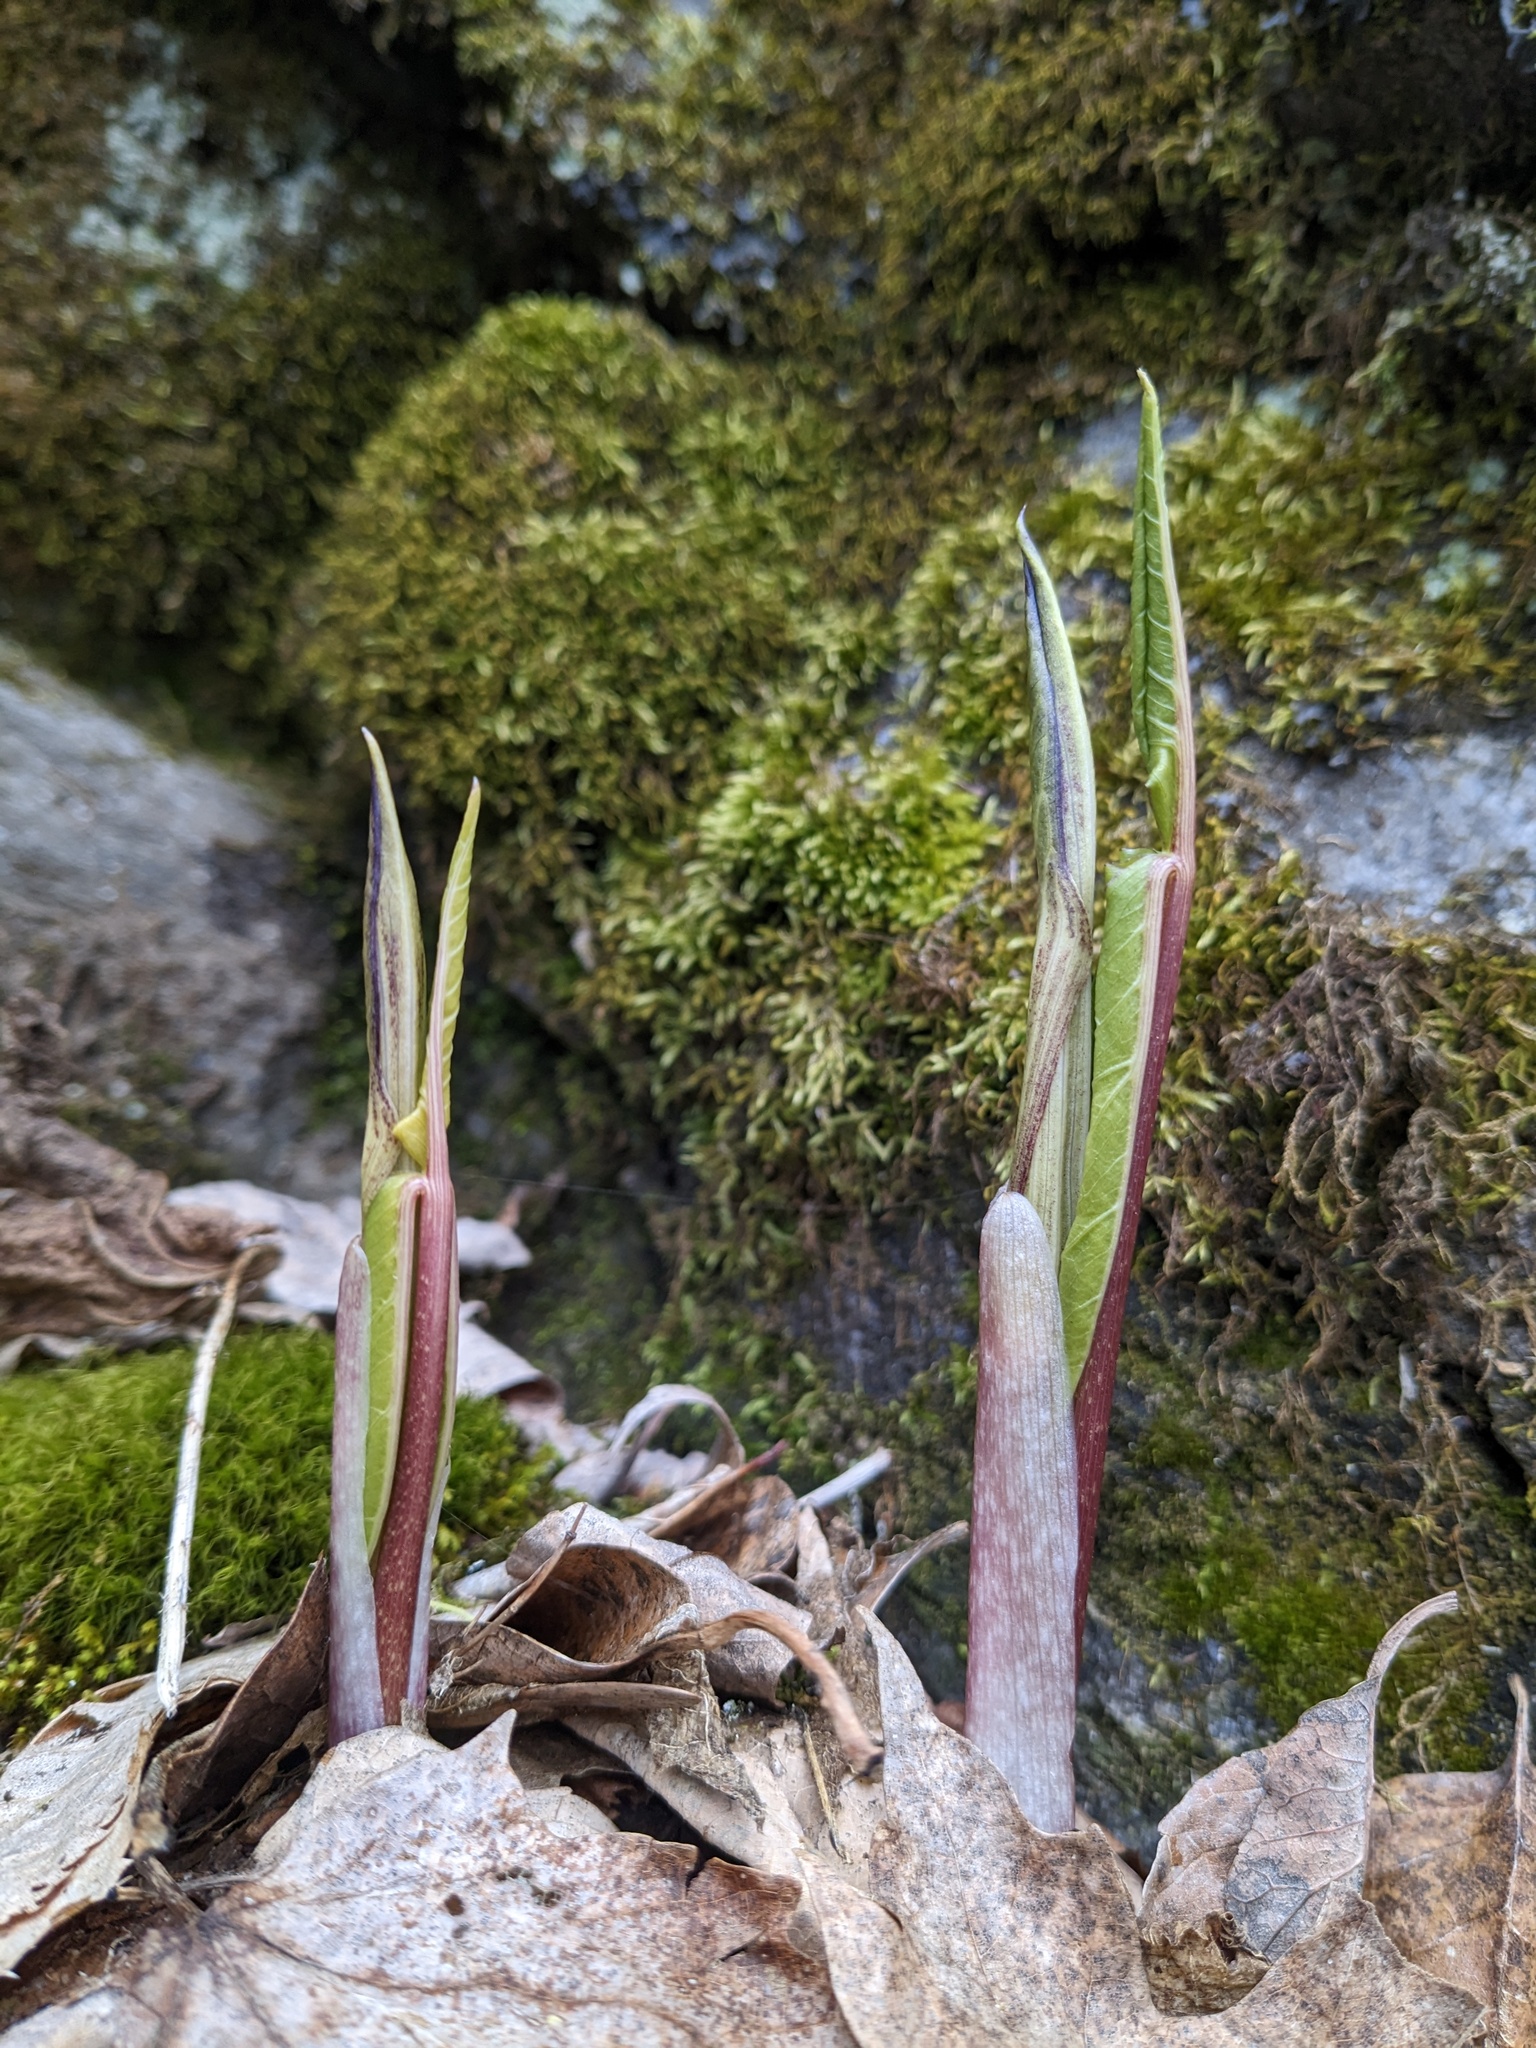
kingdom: Plantae
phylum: Tracheophyta
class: Liliopsida
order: Alismatales
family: Araceae
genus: Arisaema
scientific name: Arisaema triphyllum
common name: Jack-in-the-pulpit
